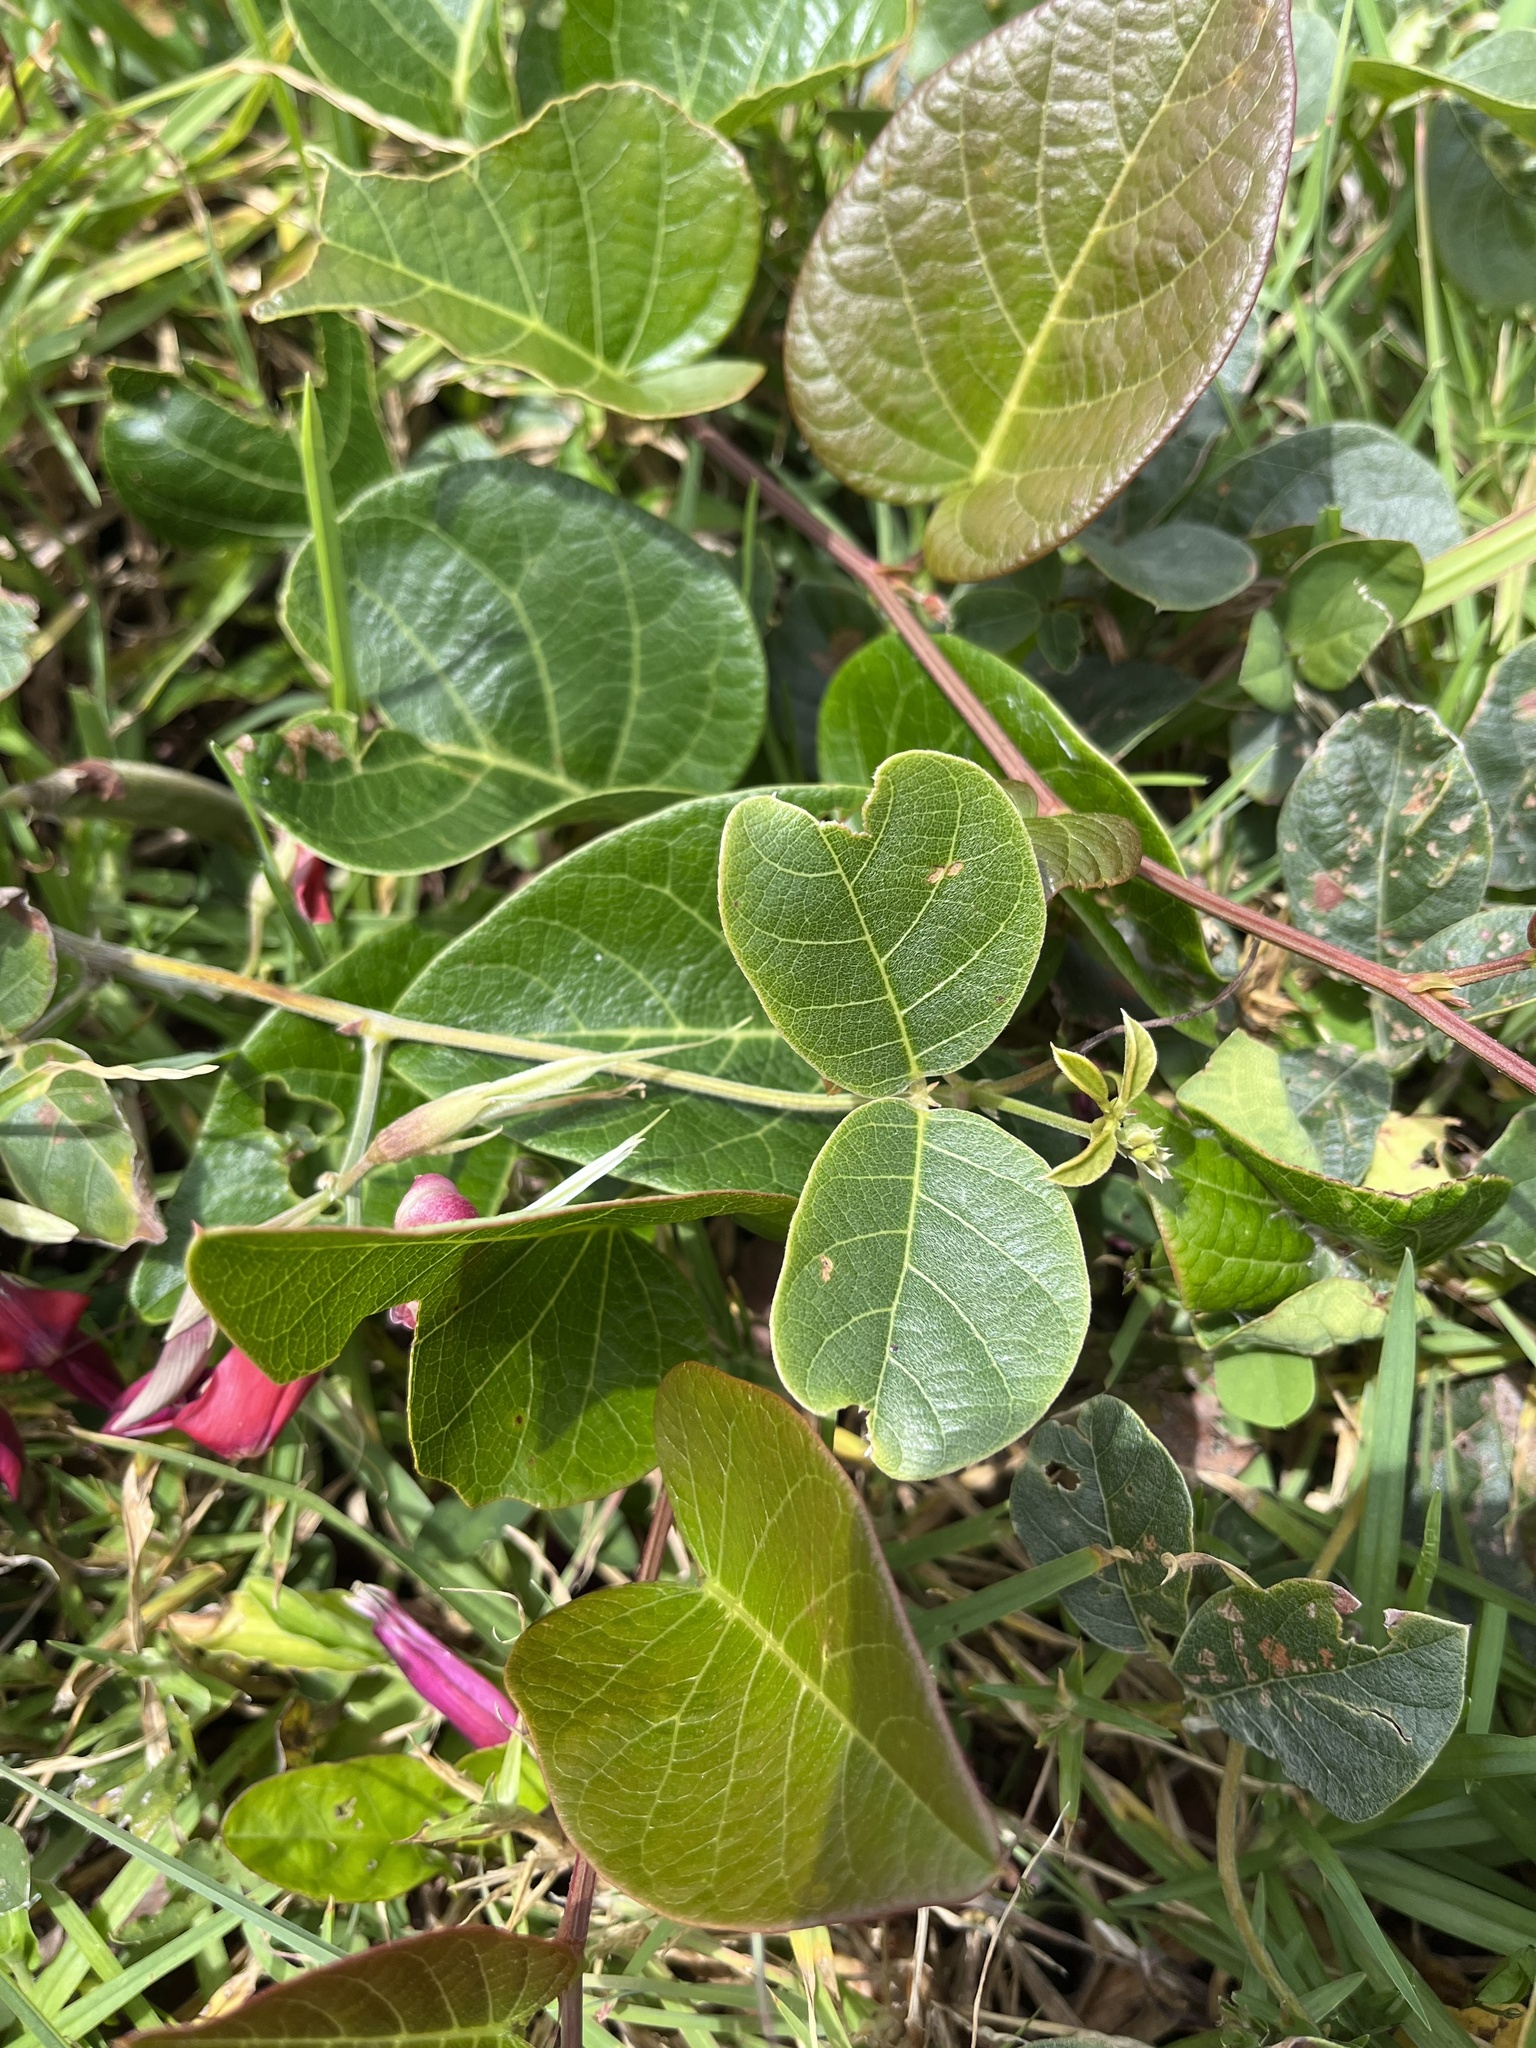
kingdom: Plantae
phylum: Tracheophyta
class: Magnoliopsida
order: Fabales
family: Fabaceae
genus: Kennedia
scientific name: Kennedia rubicunda
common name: Red kennedy-pea
